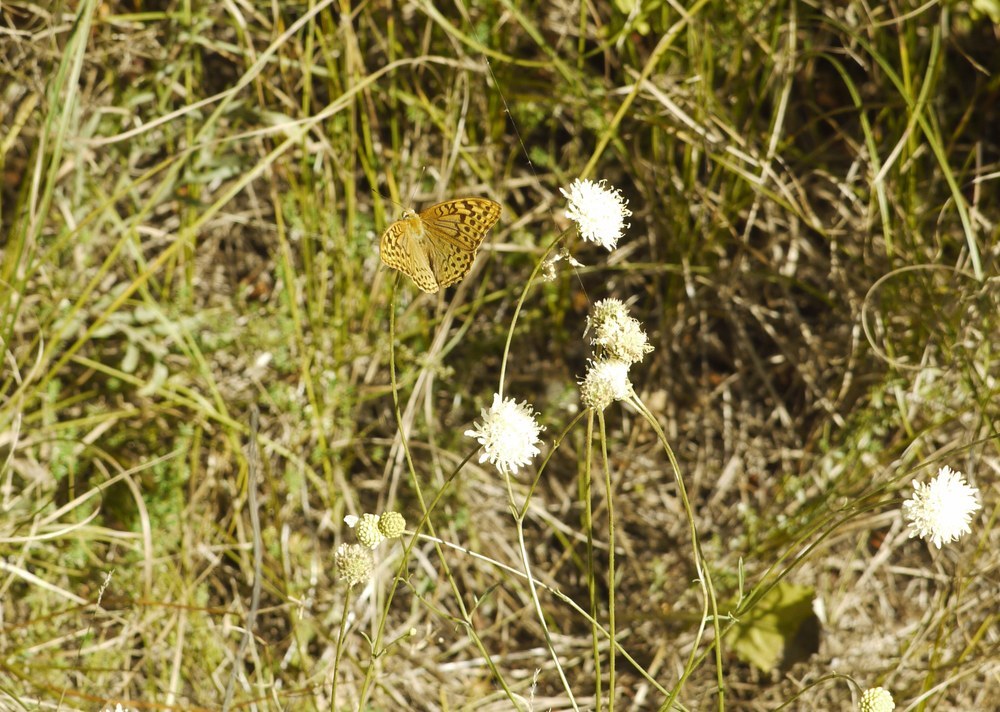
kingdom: Animalia
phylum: Arthropoda
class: Insecta
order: Lepidoptera
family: Nymphalidae
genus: Damora
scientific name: Damora pandora
